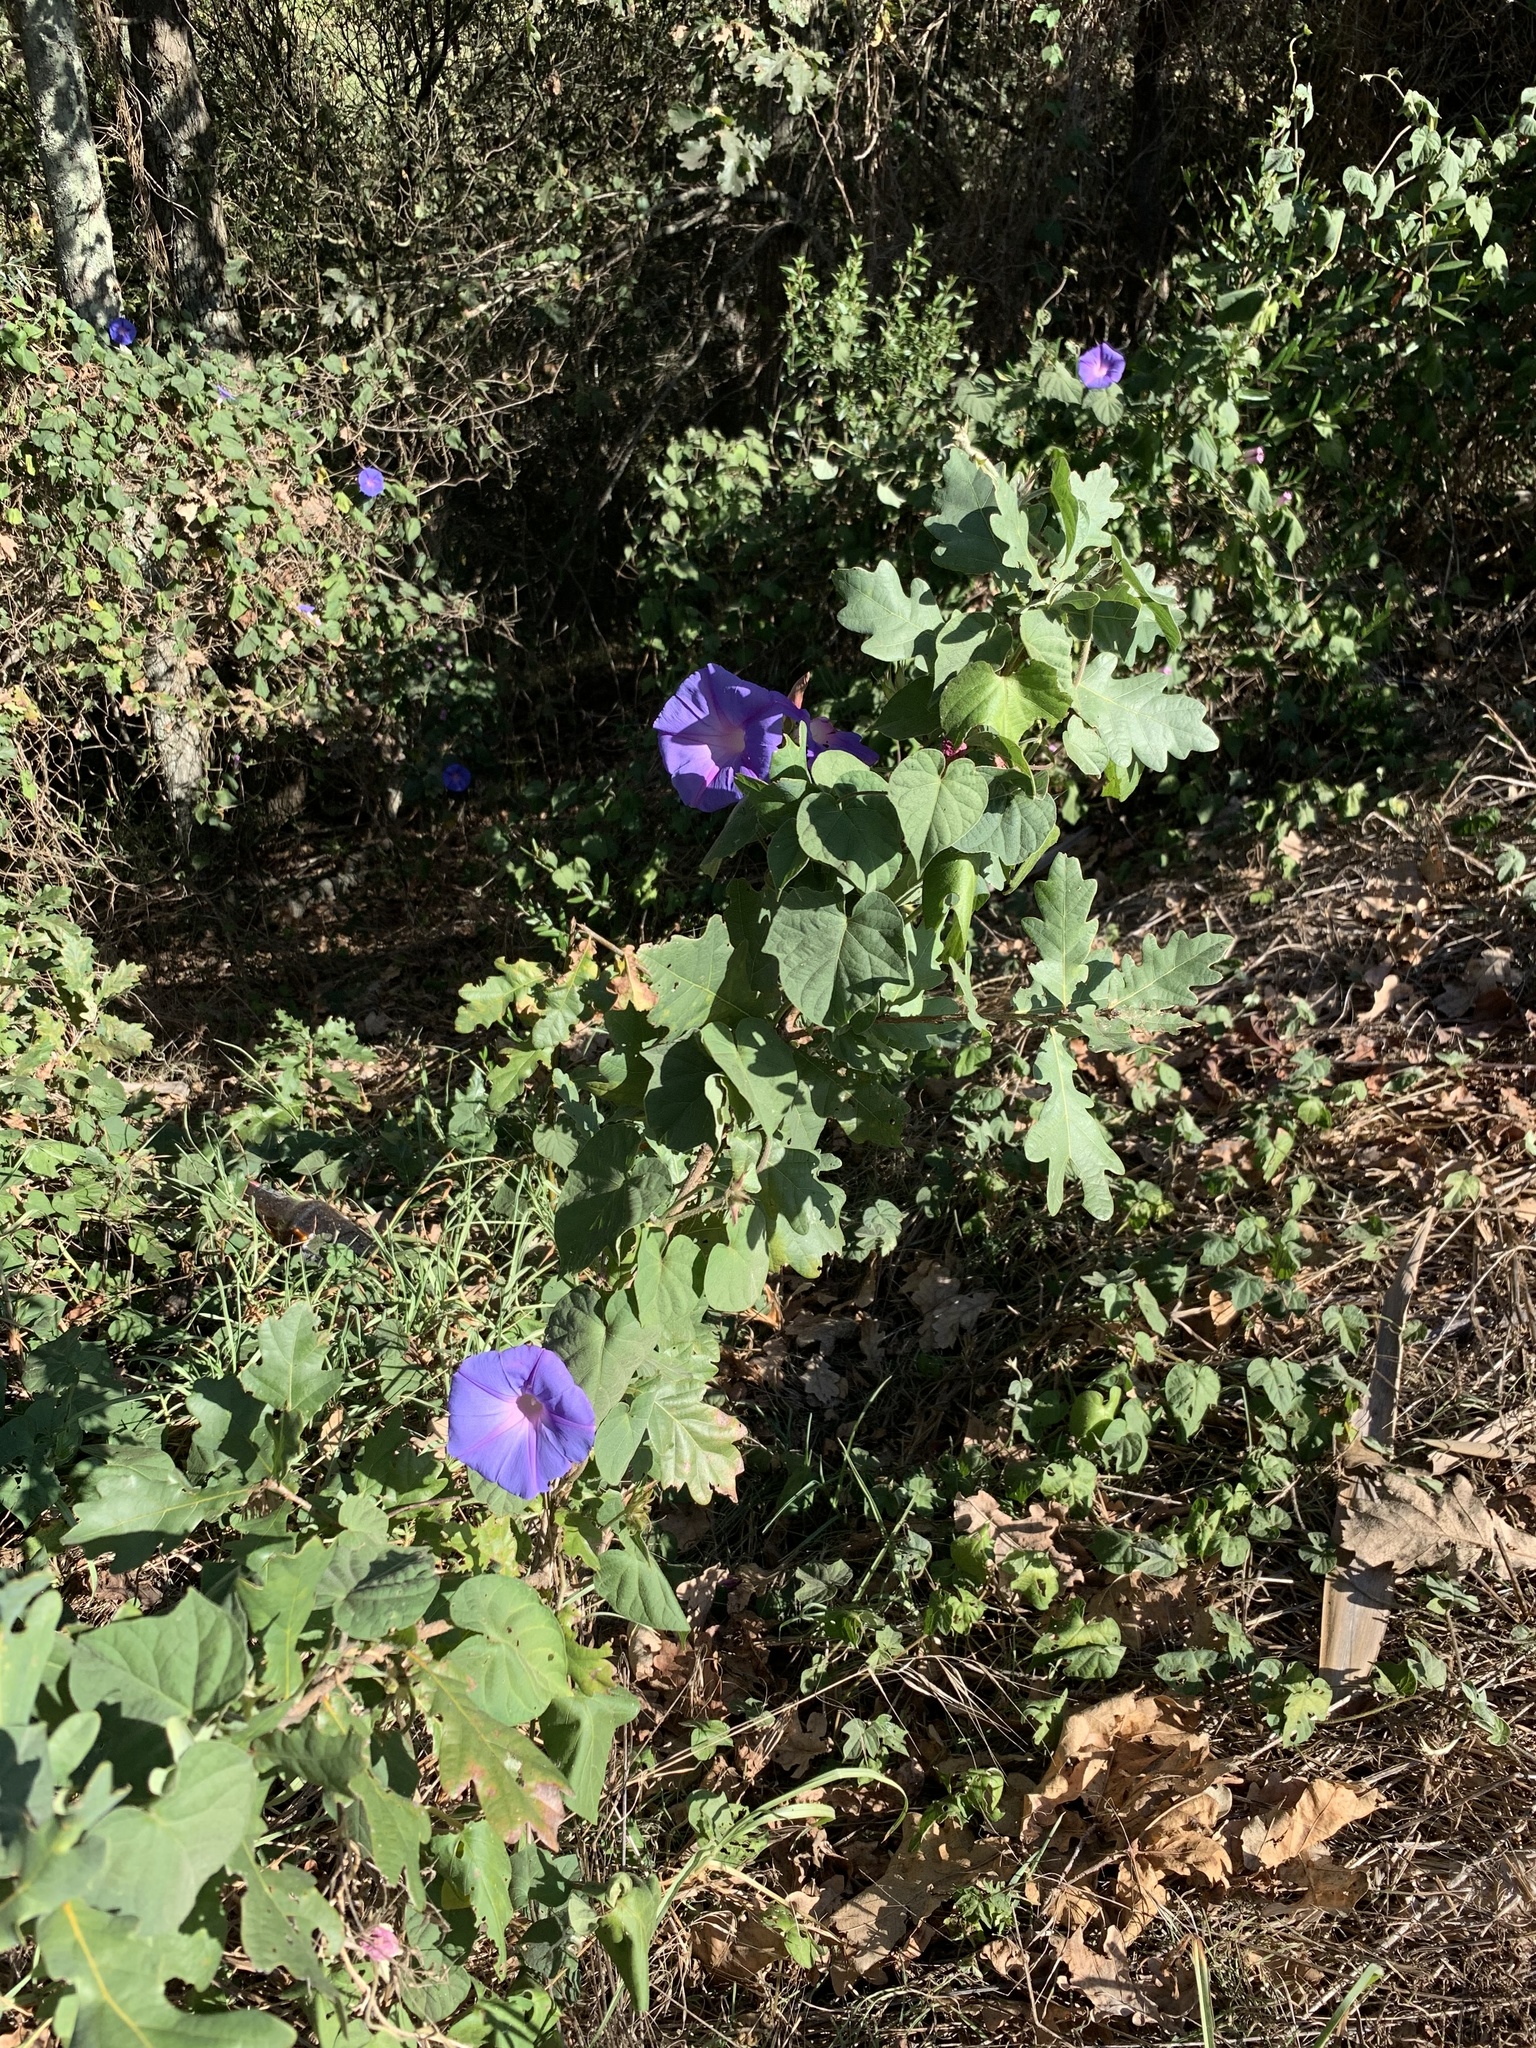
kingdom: Plantae
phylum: Tracheophyta
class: Magnoliopsida
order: Solanales
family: Convolvulaceae
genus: Ipomoea
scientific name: Ipomoea indica
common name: Blue dawnflower
